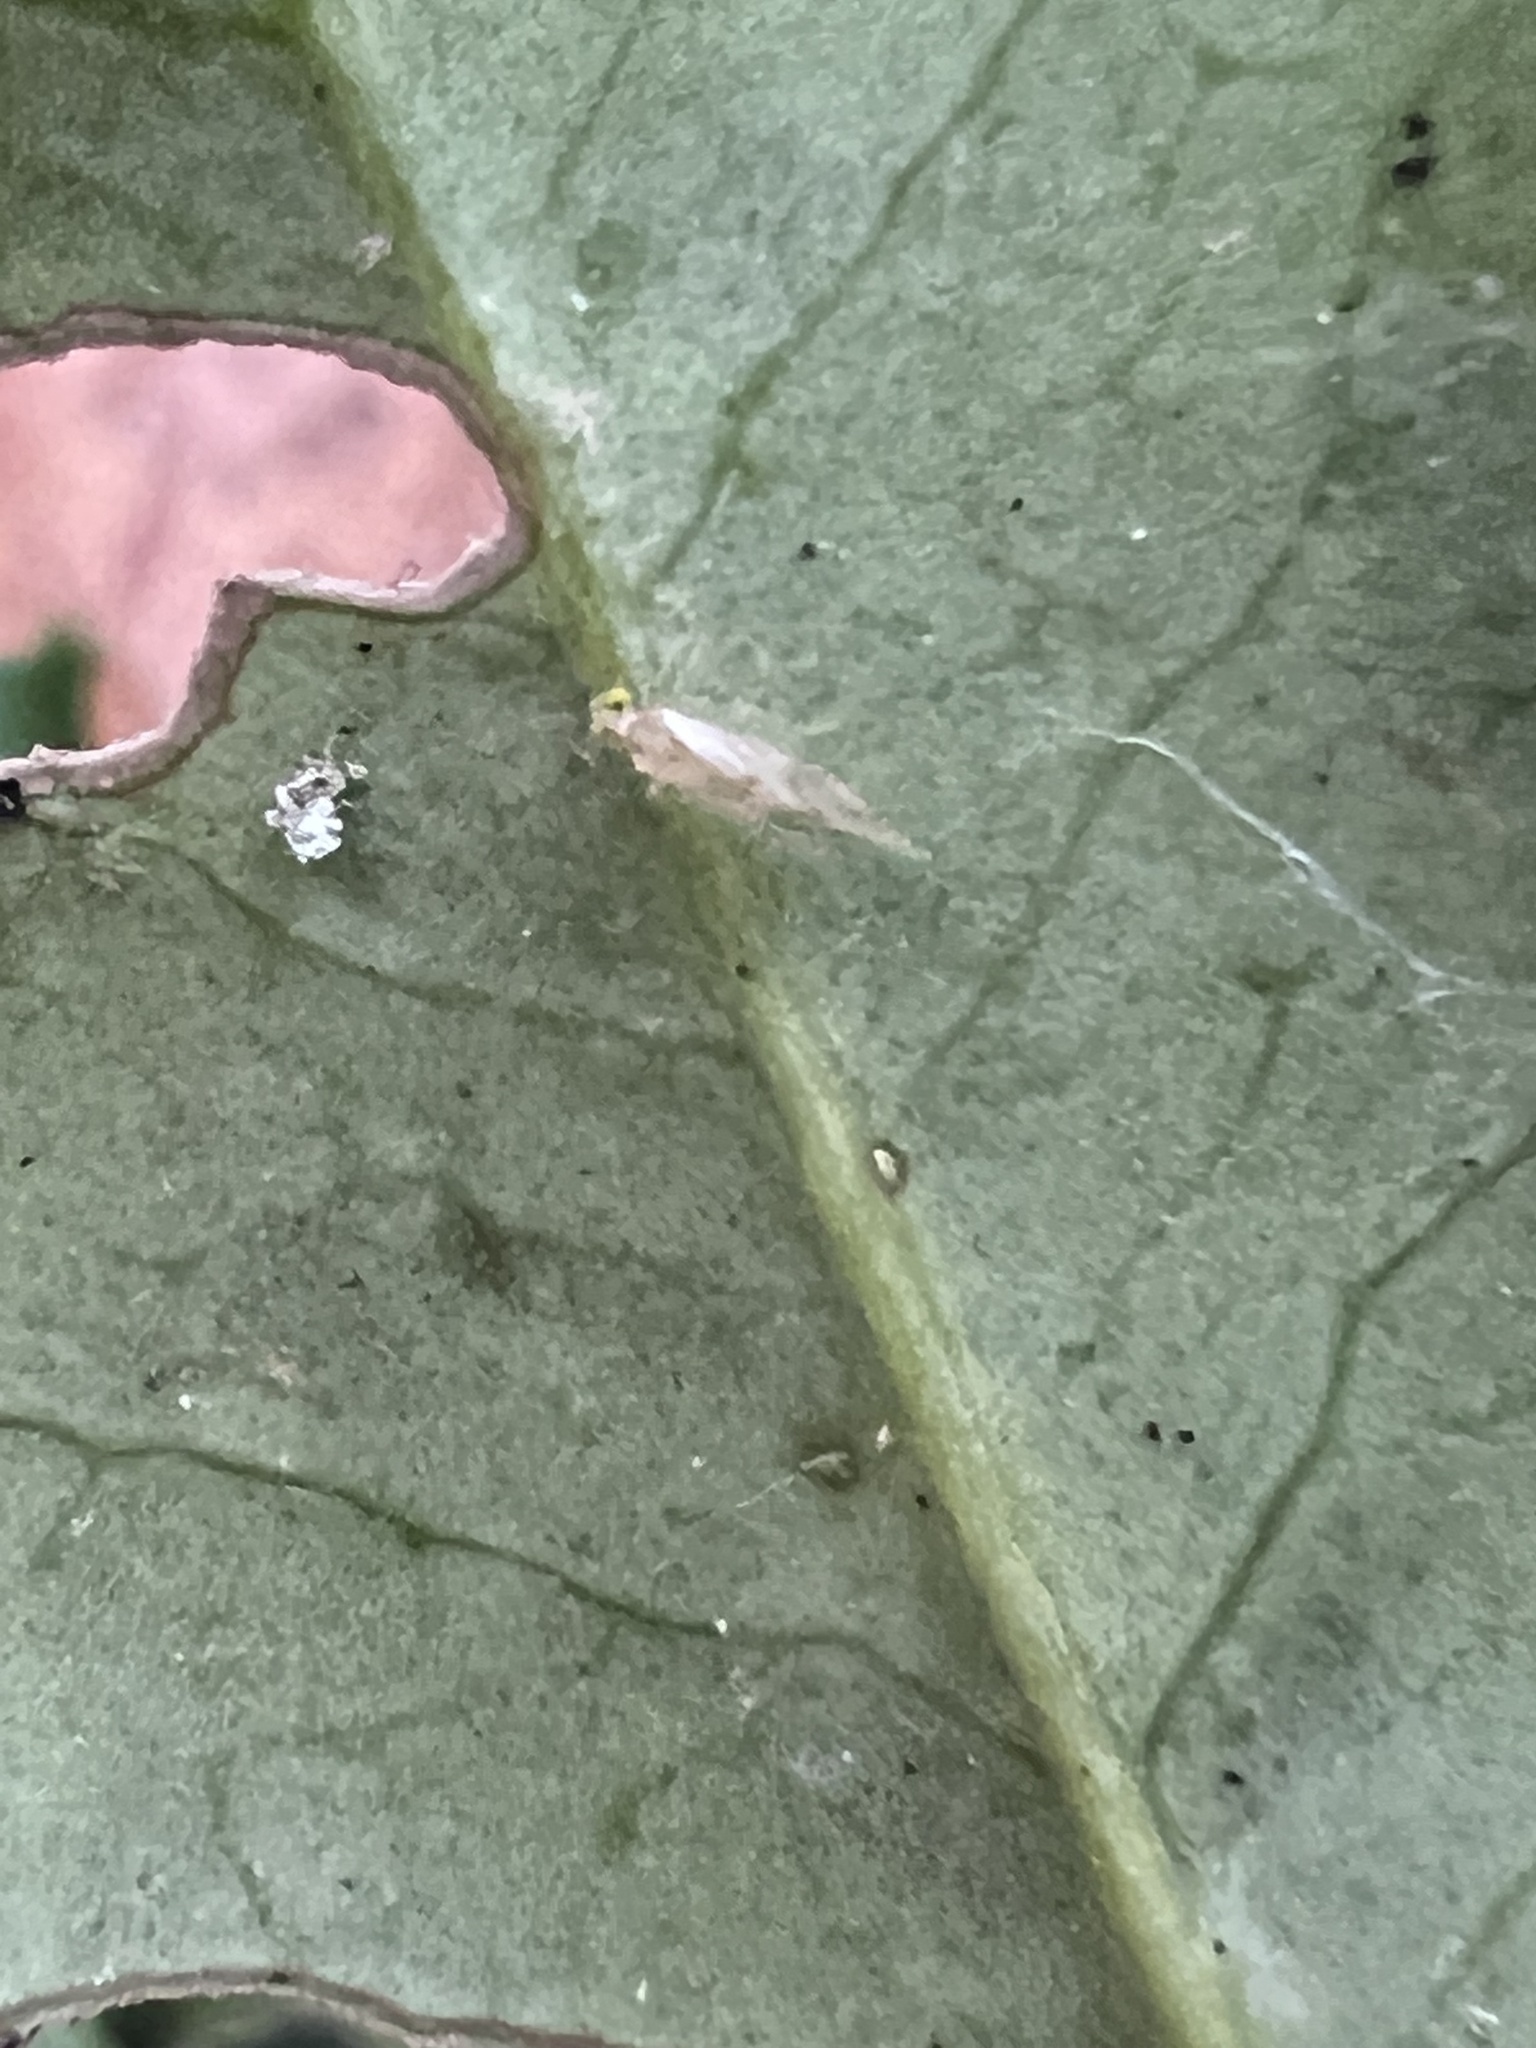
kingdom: Animalia
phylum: Arthropoda
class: Insecta
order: Psocodea
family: Paracaeciliidae
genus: Xanthocaecilius
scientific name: Xanthocaecilius sommermanae
